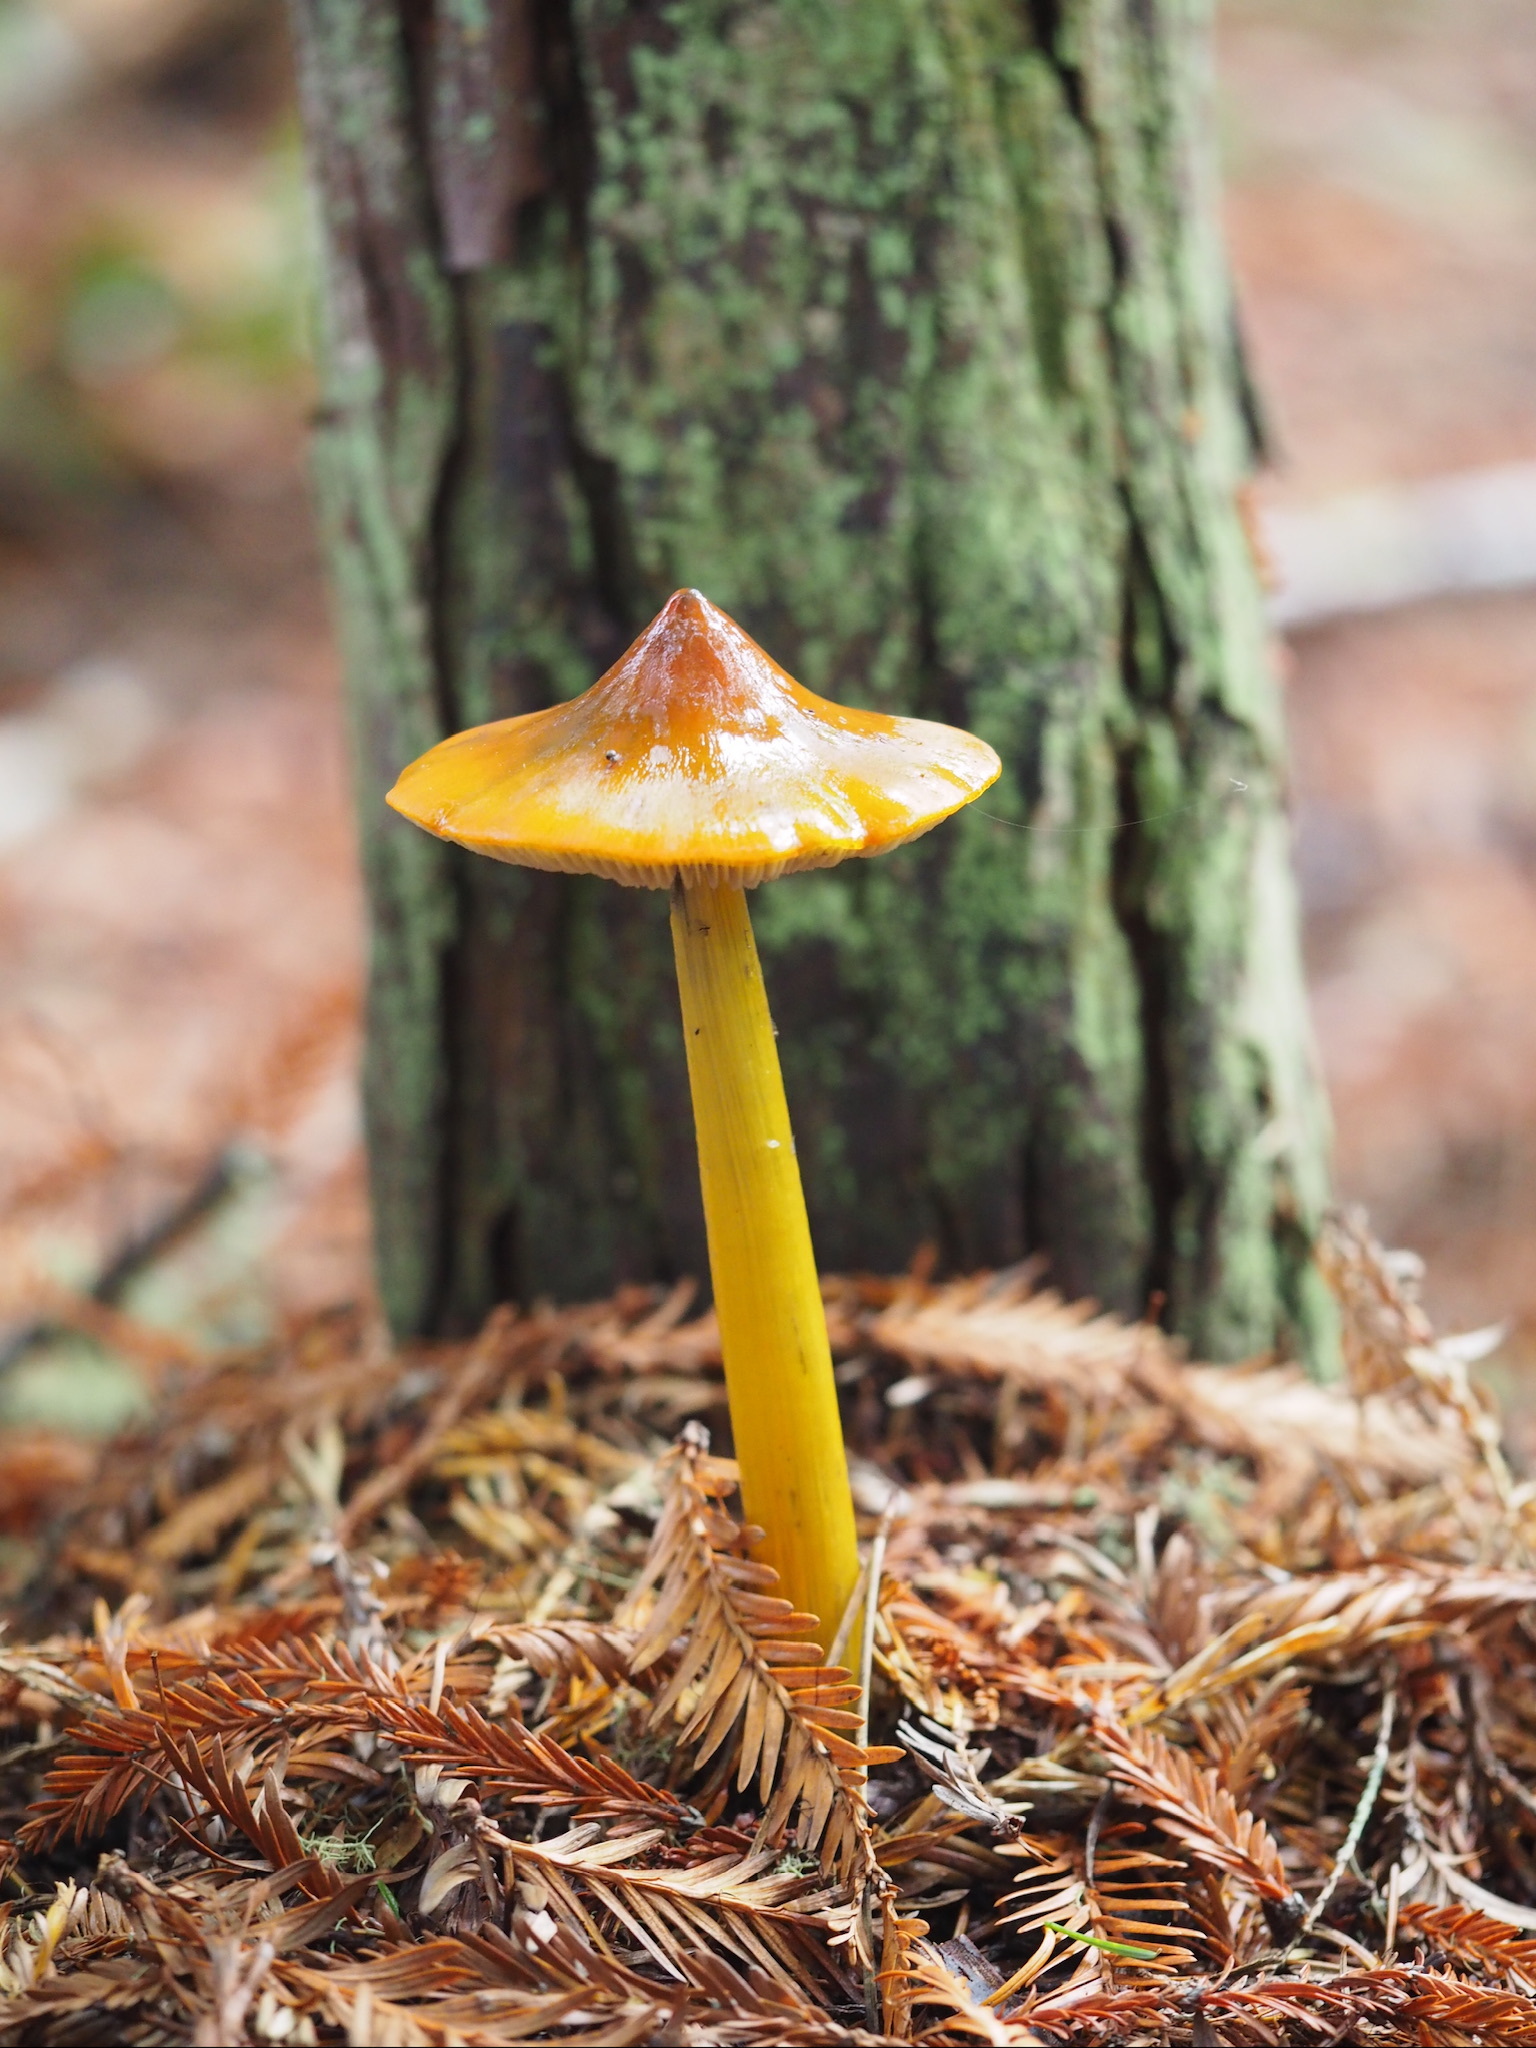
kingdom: Fungi
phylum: Basidiomycota
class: Agaricomycetes
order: Agaricales
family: Hygrophoraceae
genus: Hygrocybe
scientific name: Hygrocybe singeri
